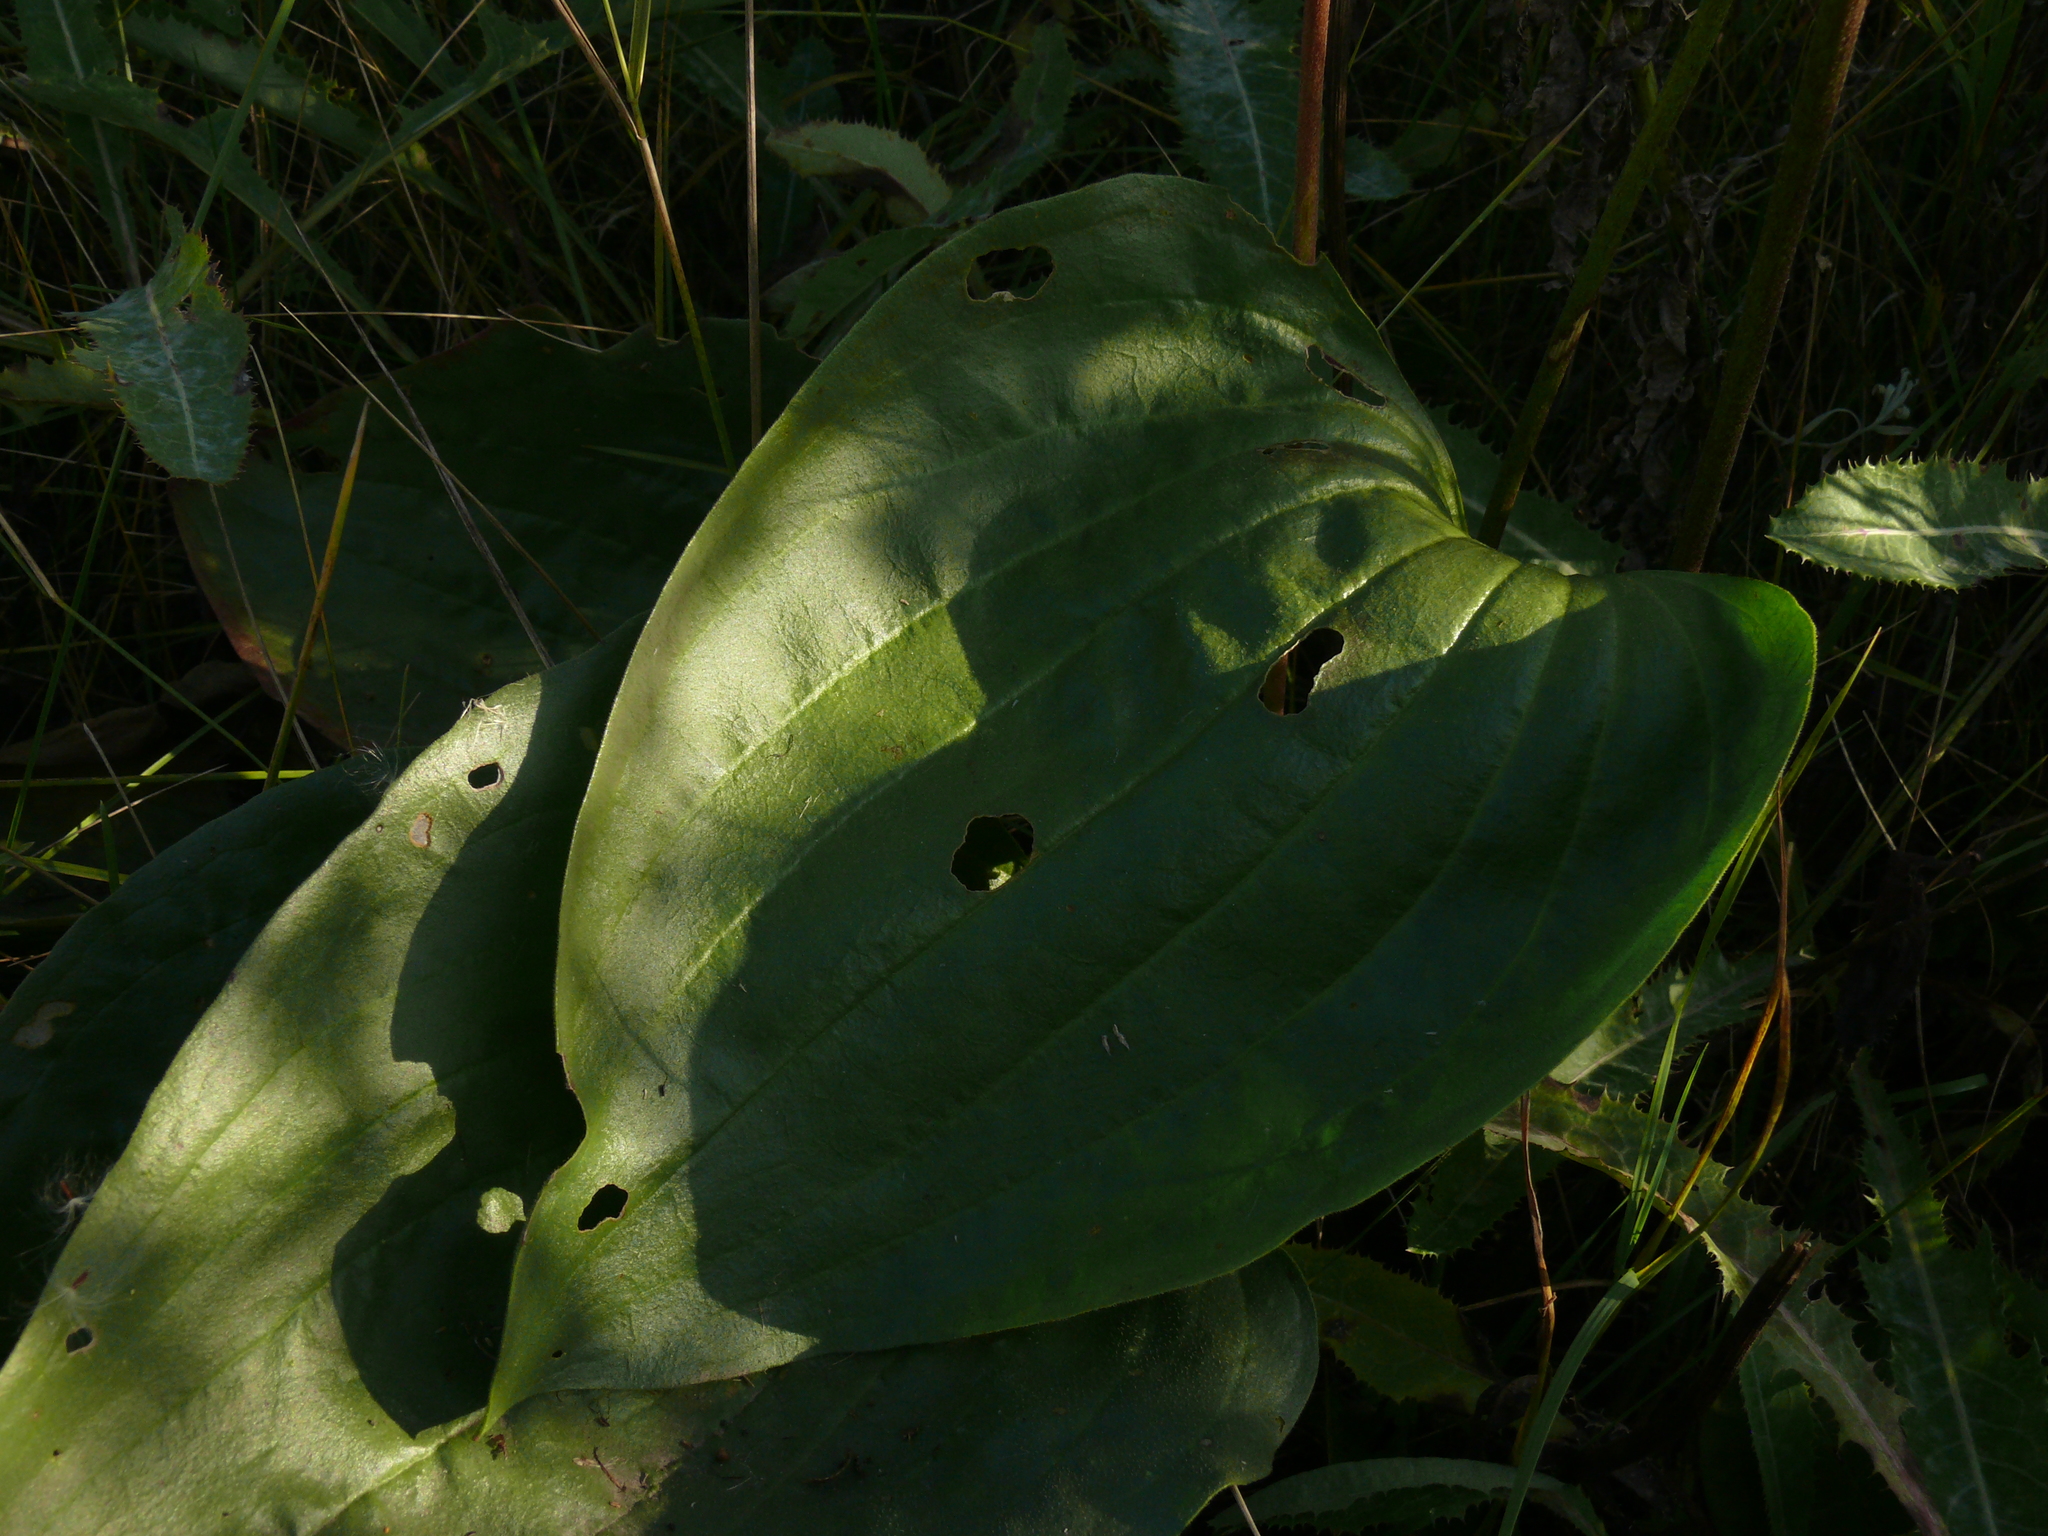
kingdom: Plantae
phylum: Tracheophyta
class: Magnoliopsida
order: Lamiales
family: Plantaginaceae
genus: Plantago
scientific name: Plantago maxima
